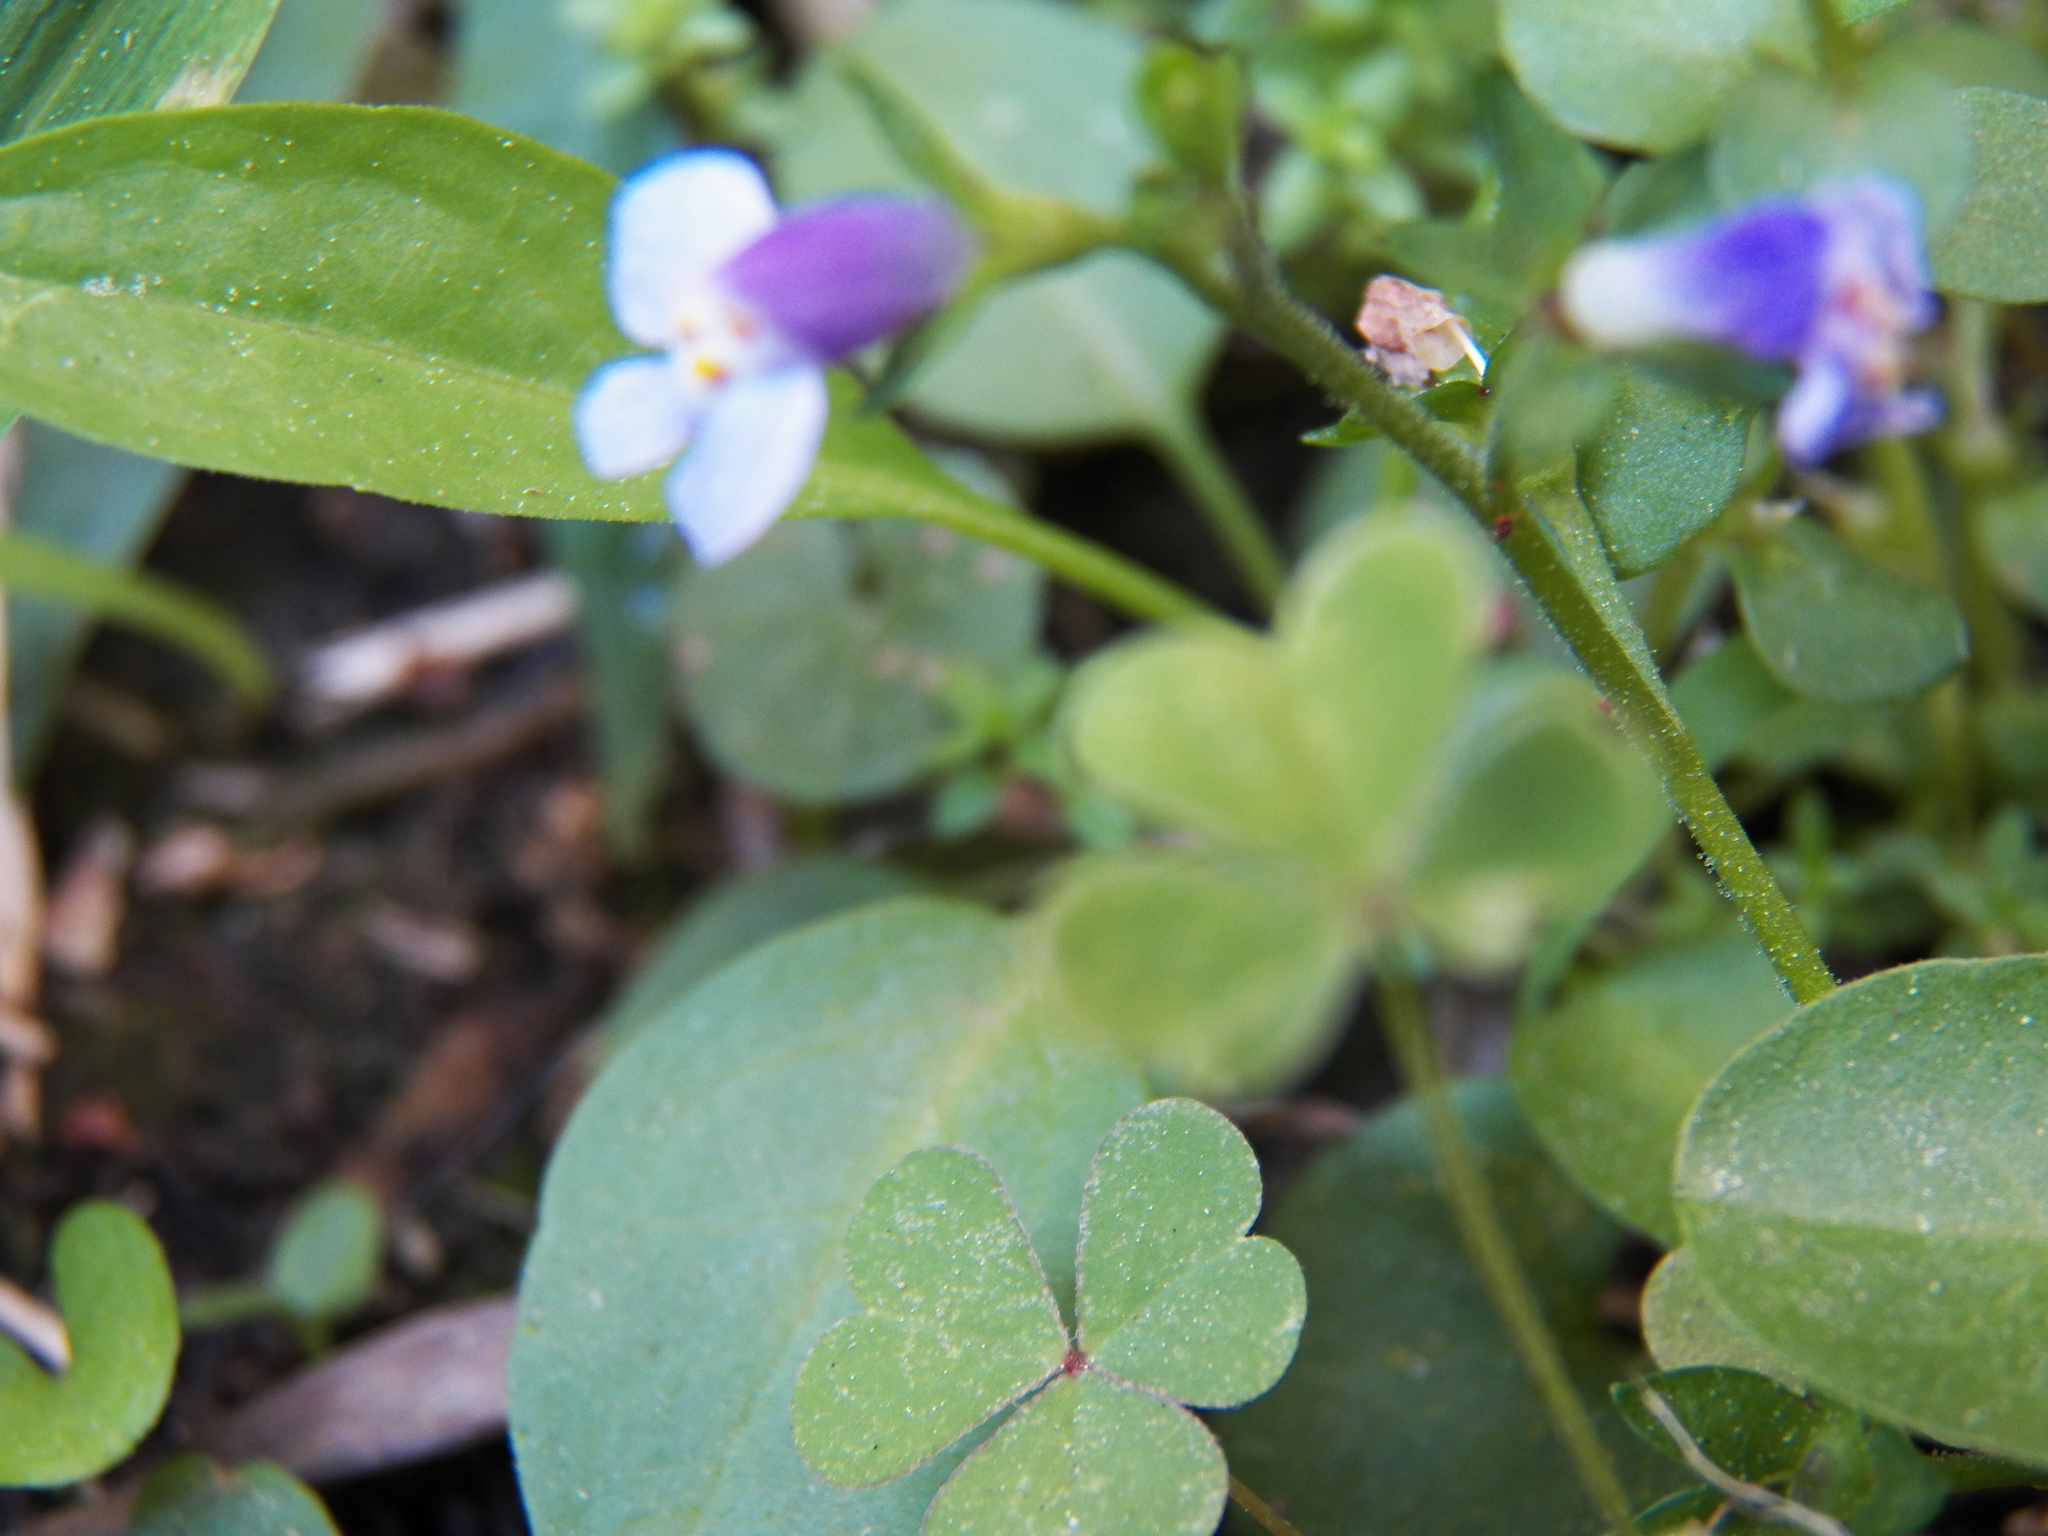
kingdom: Plantae
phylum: Tracheophyta
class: Magnoliopsida
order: Lamiales
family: Mazaceae
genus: Mazus
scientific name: Mazus pumilus
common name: Japanese mazus
